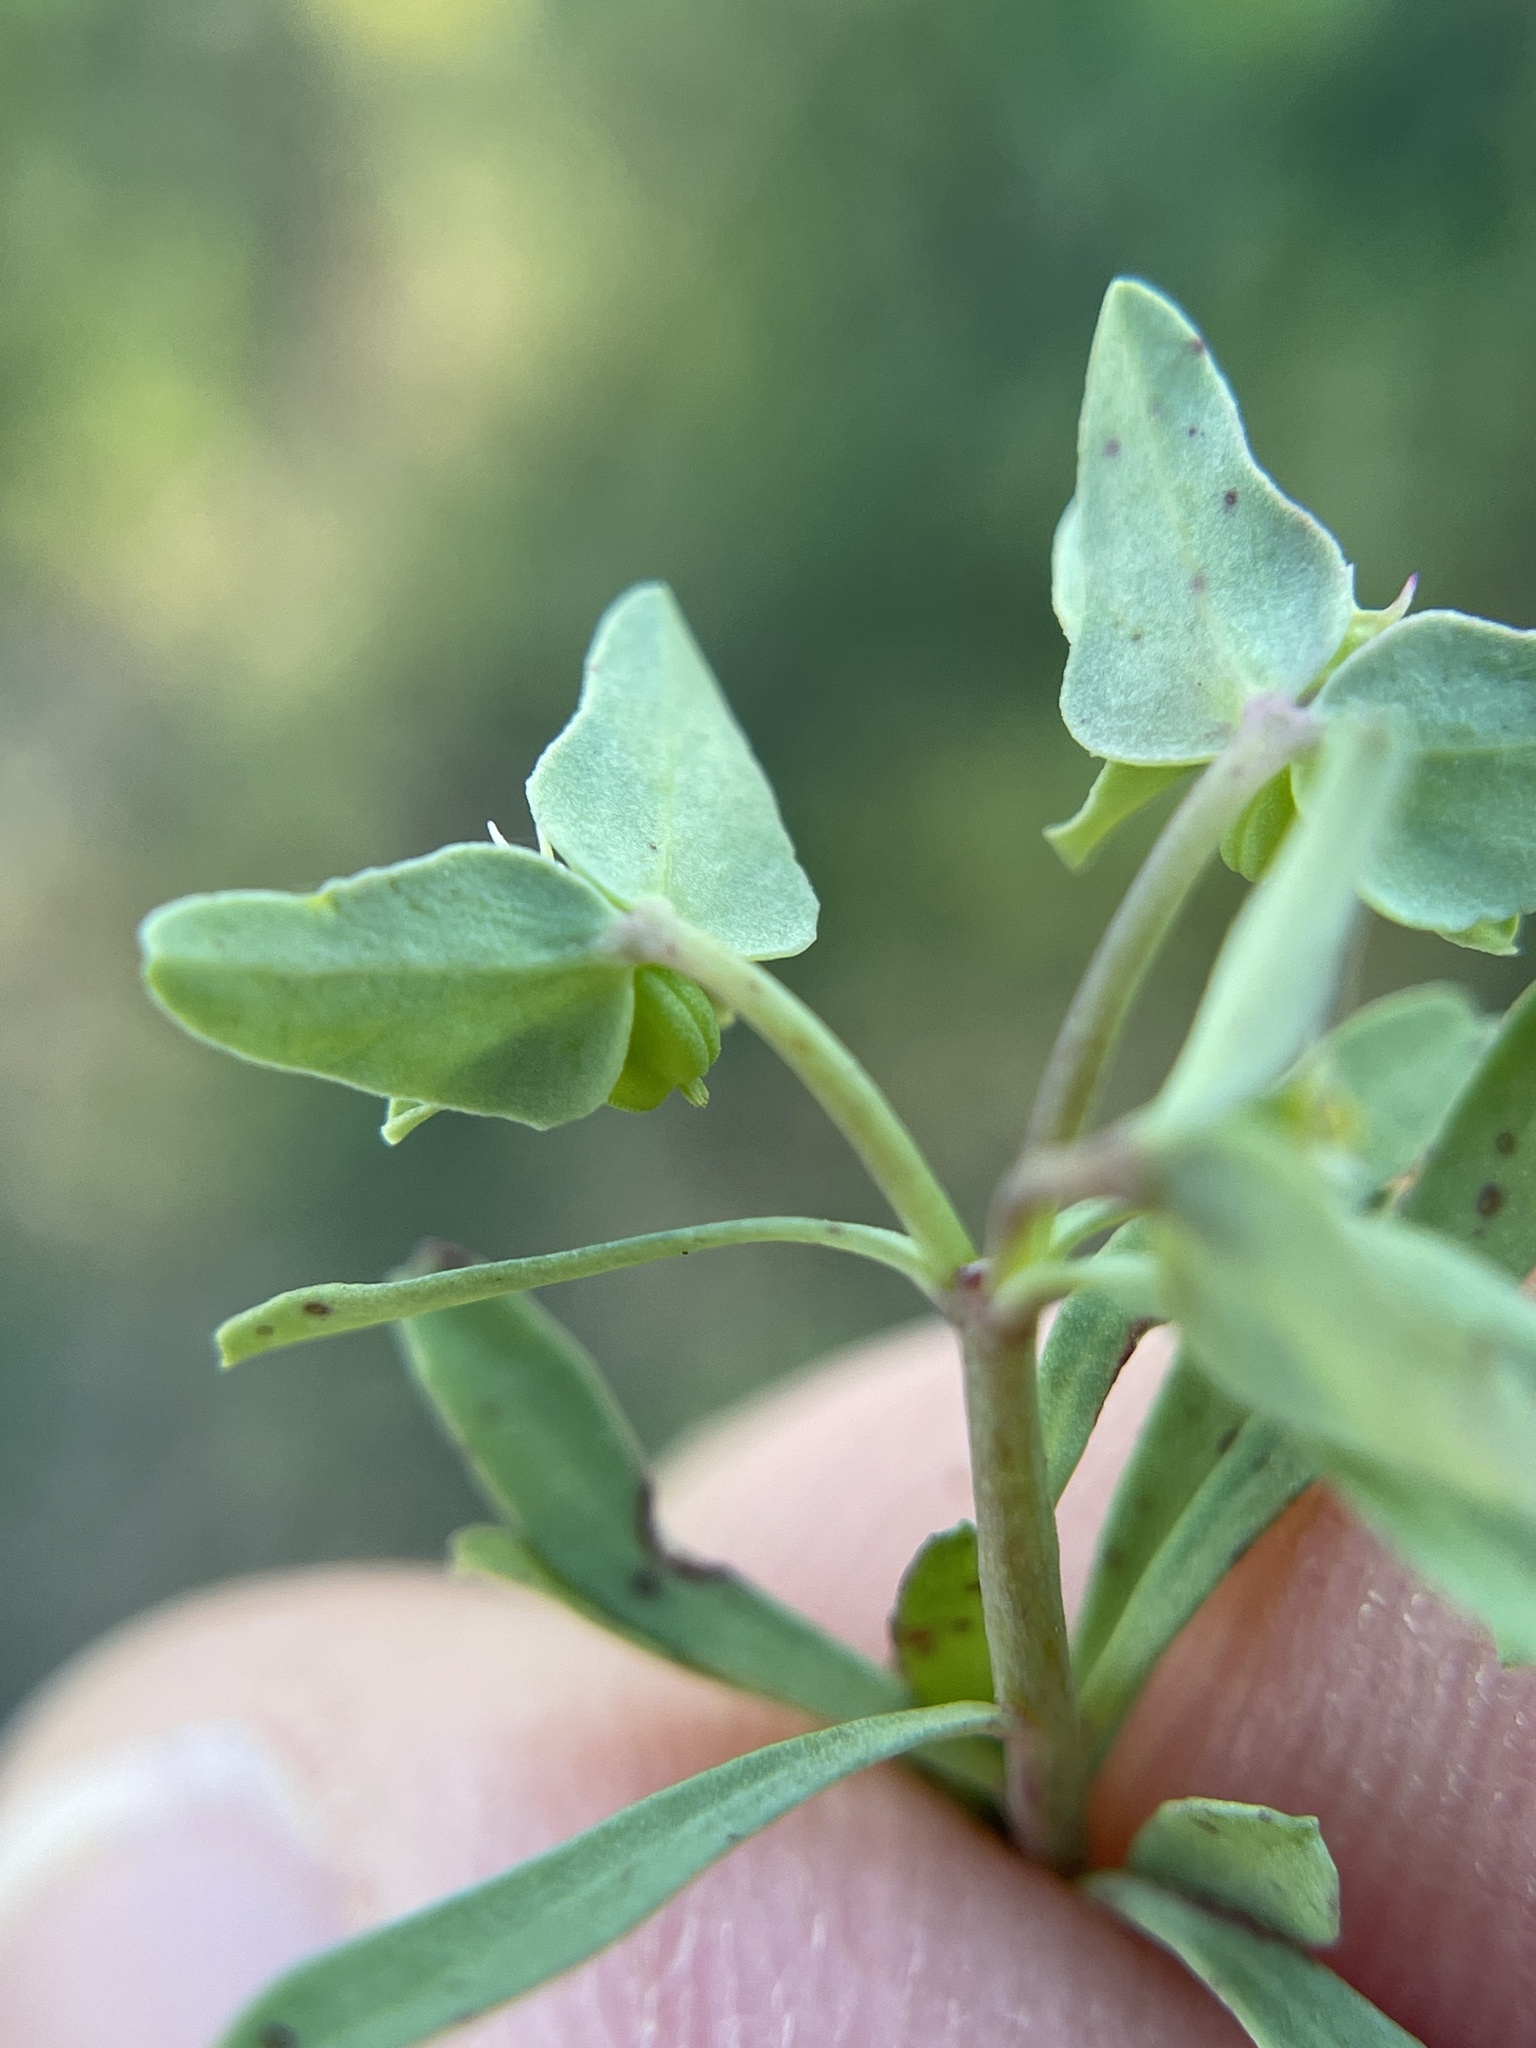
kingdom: Plantae
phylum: Tracheophyta
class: Magnoliopsida
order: Malpighiales
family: Euphorbiaceae
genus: Euphorbia
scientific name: Euphorbia peplidion
